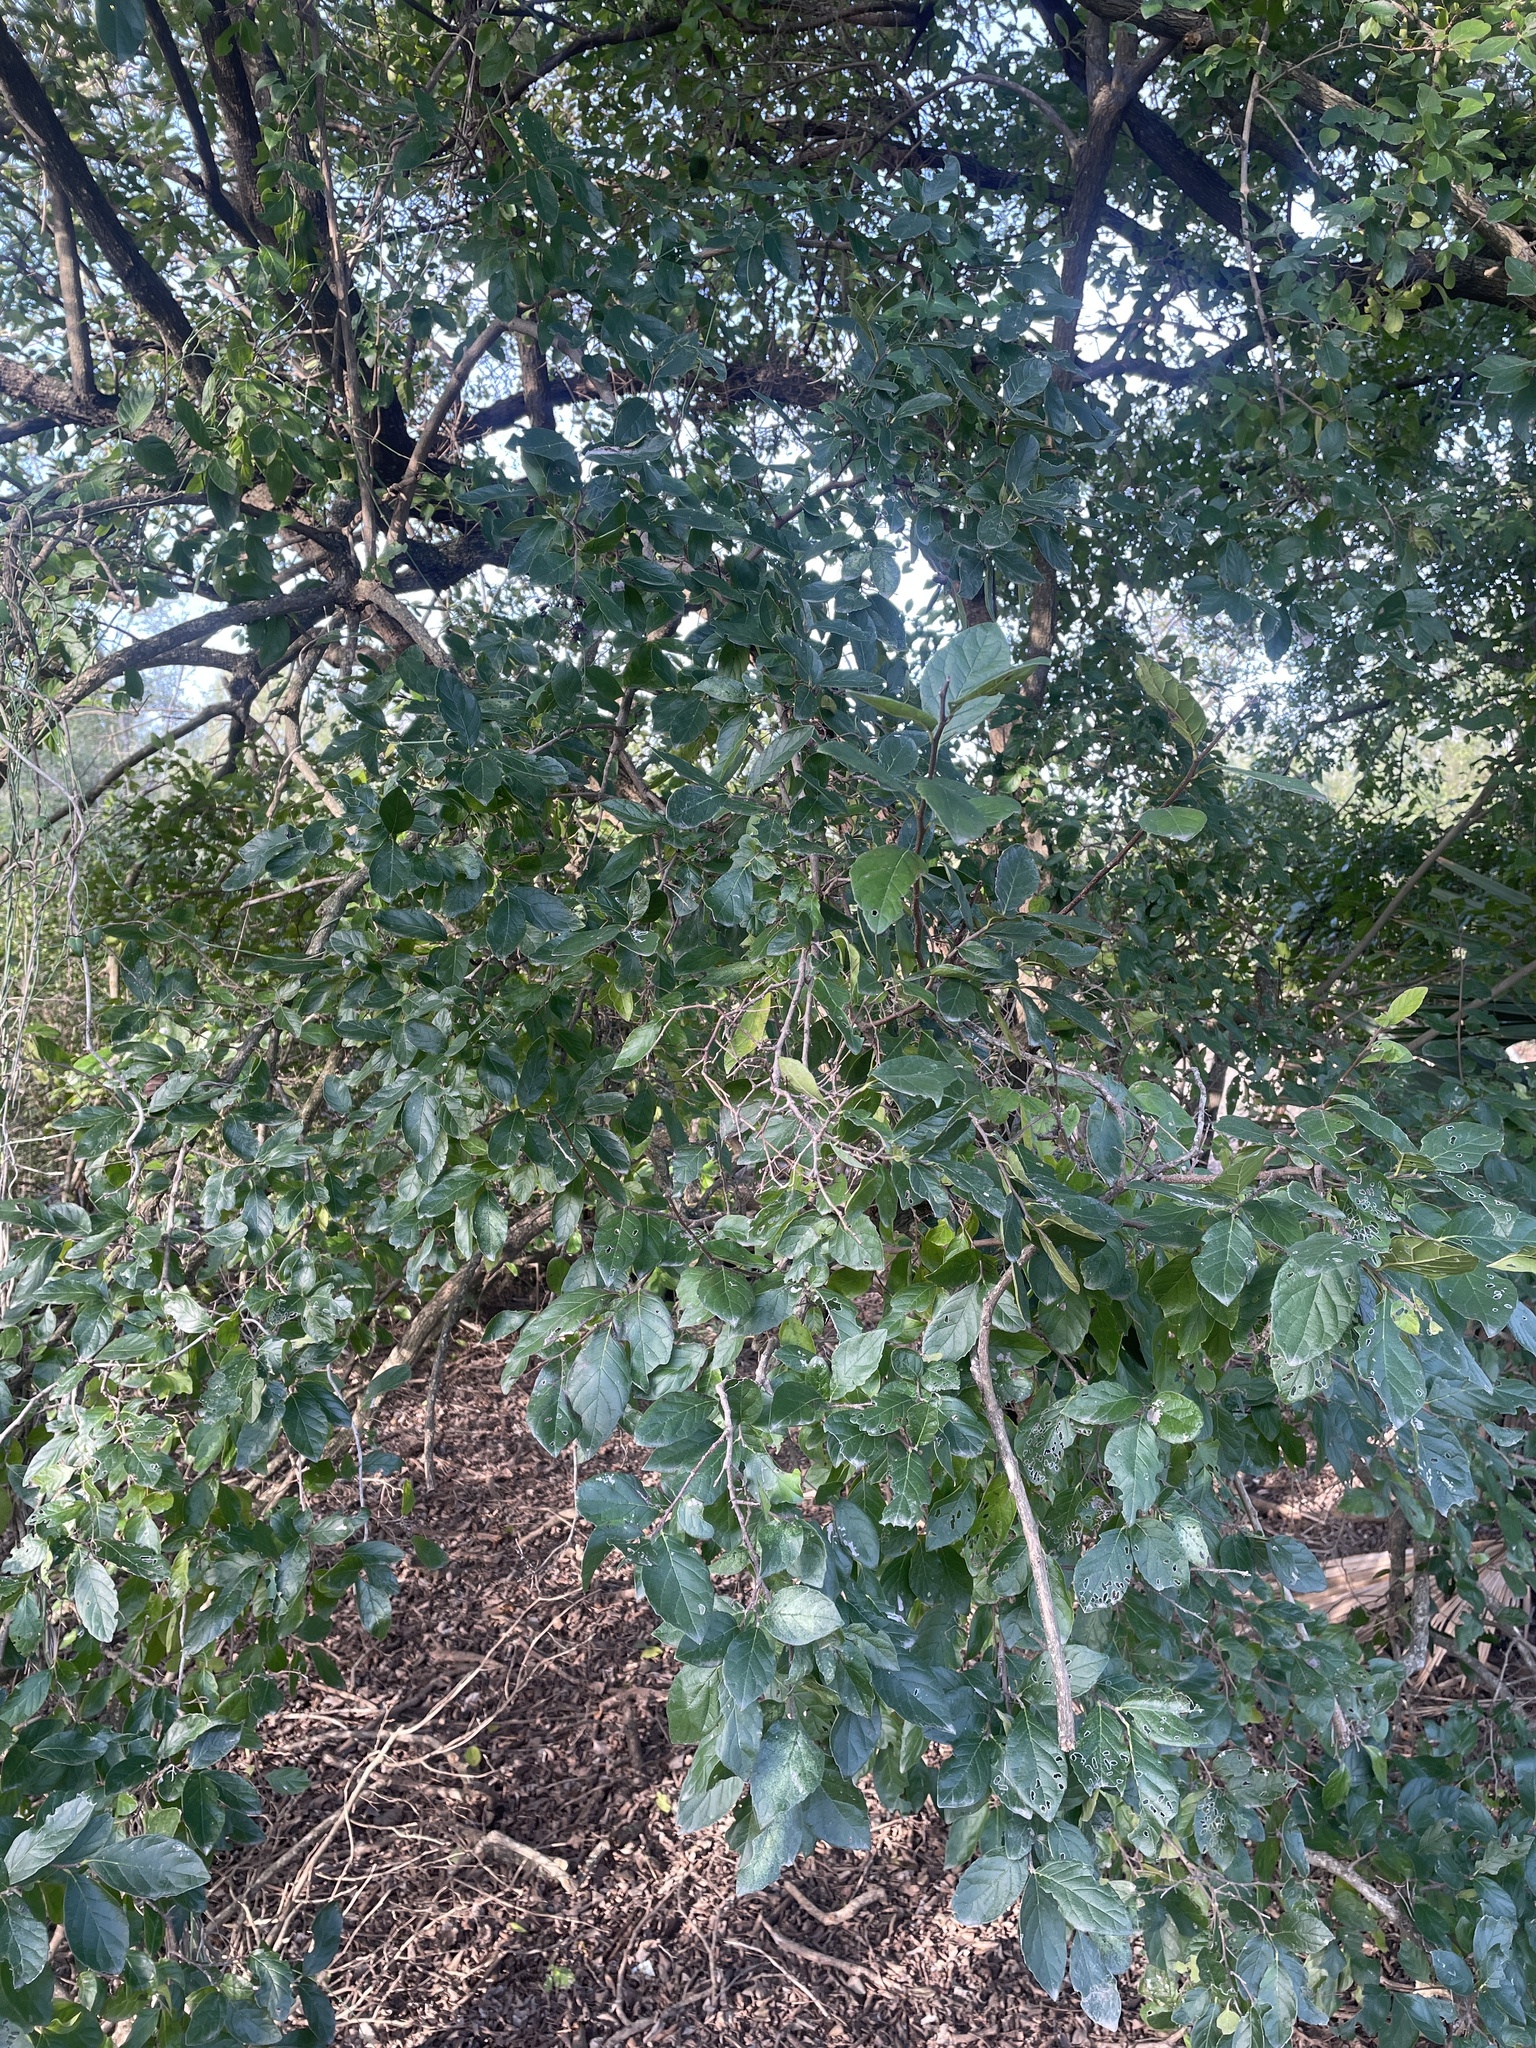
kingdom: Plantae
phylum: Tracheophyta
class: Magnoliopsida
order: Boraginales
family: Ehretiaceae
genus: Ehretia
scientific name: Ehretia anacua
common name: Sugarberry
